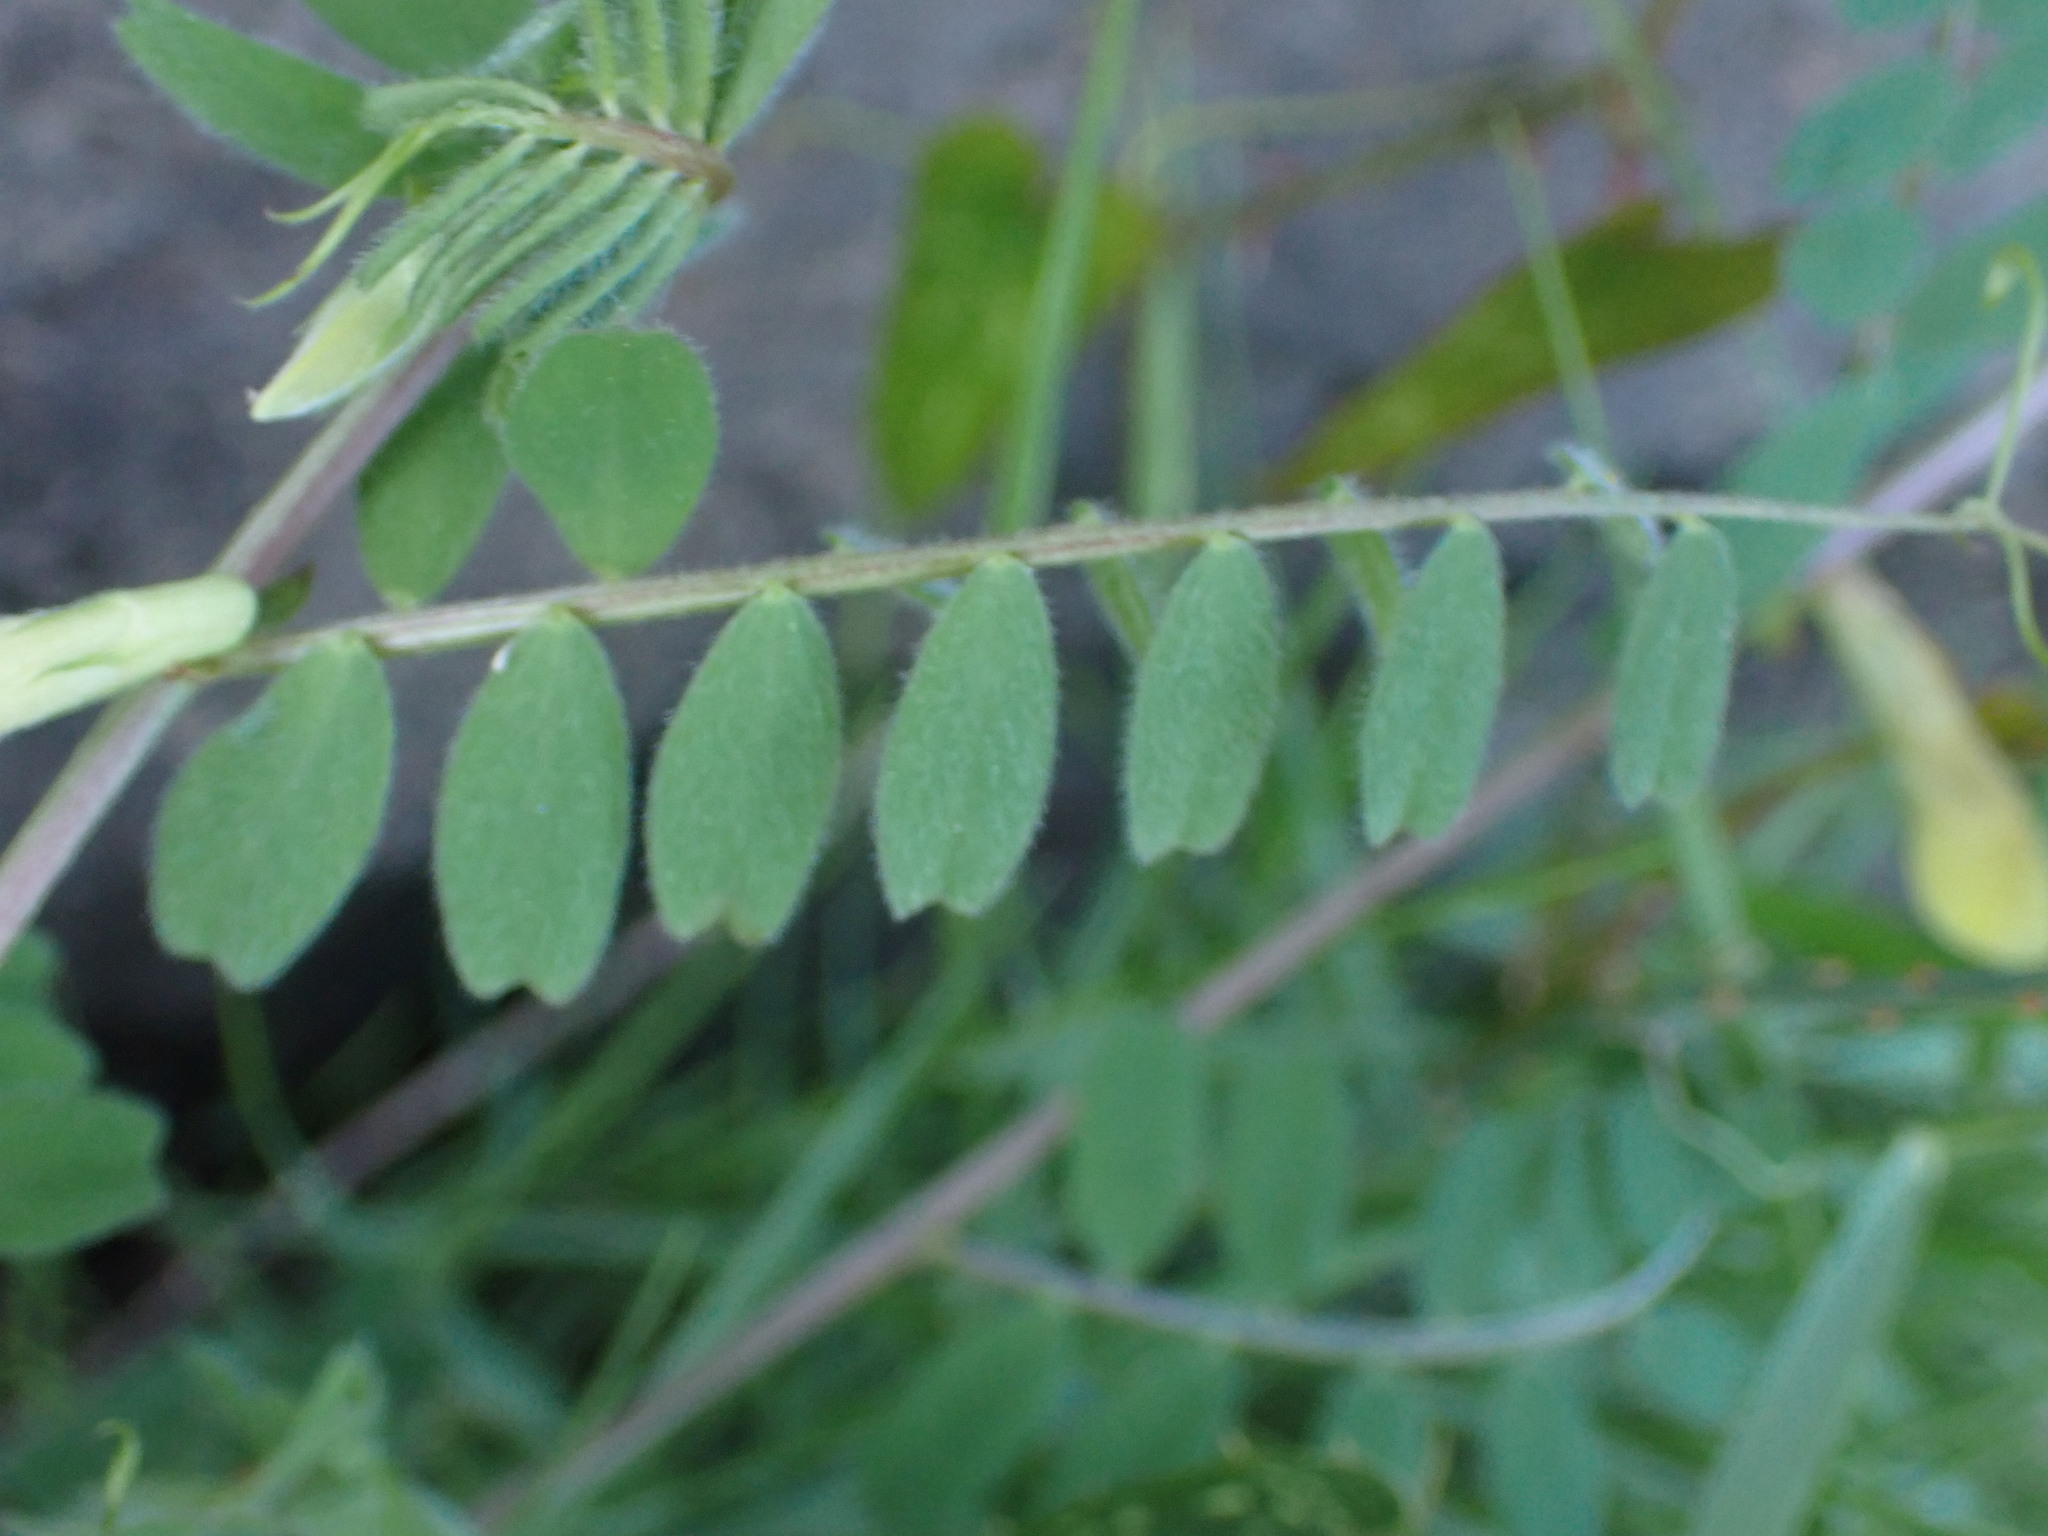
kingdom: Plantae
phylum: Tracheophyta
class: Magnoliopsida
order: Fabales
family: Fabaceae
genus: Vicia
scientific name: Vicia hybrida
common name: Hairy yellow vetch
